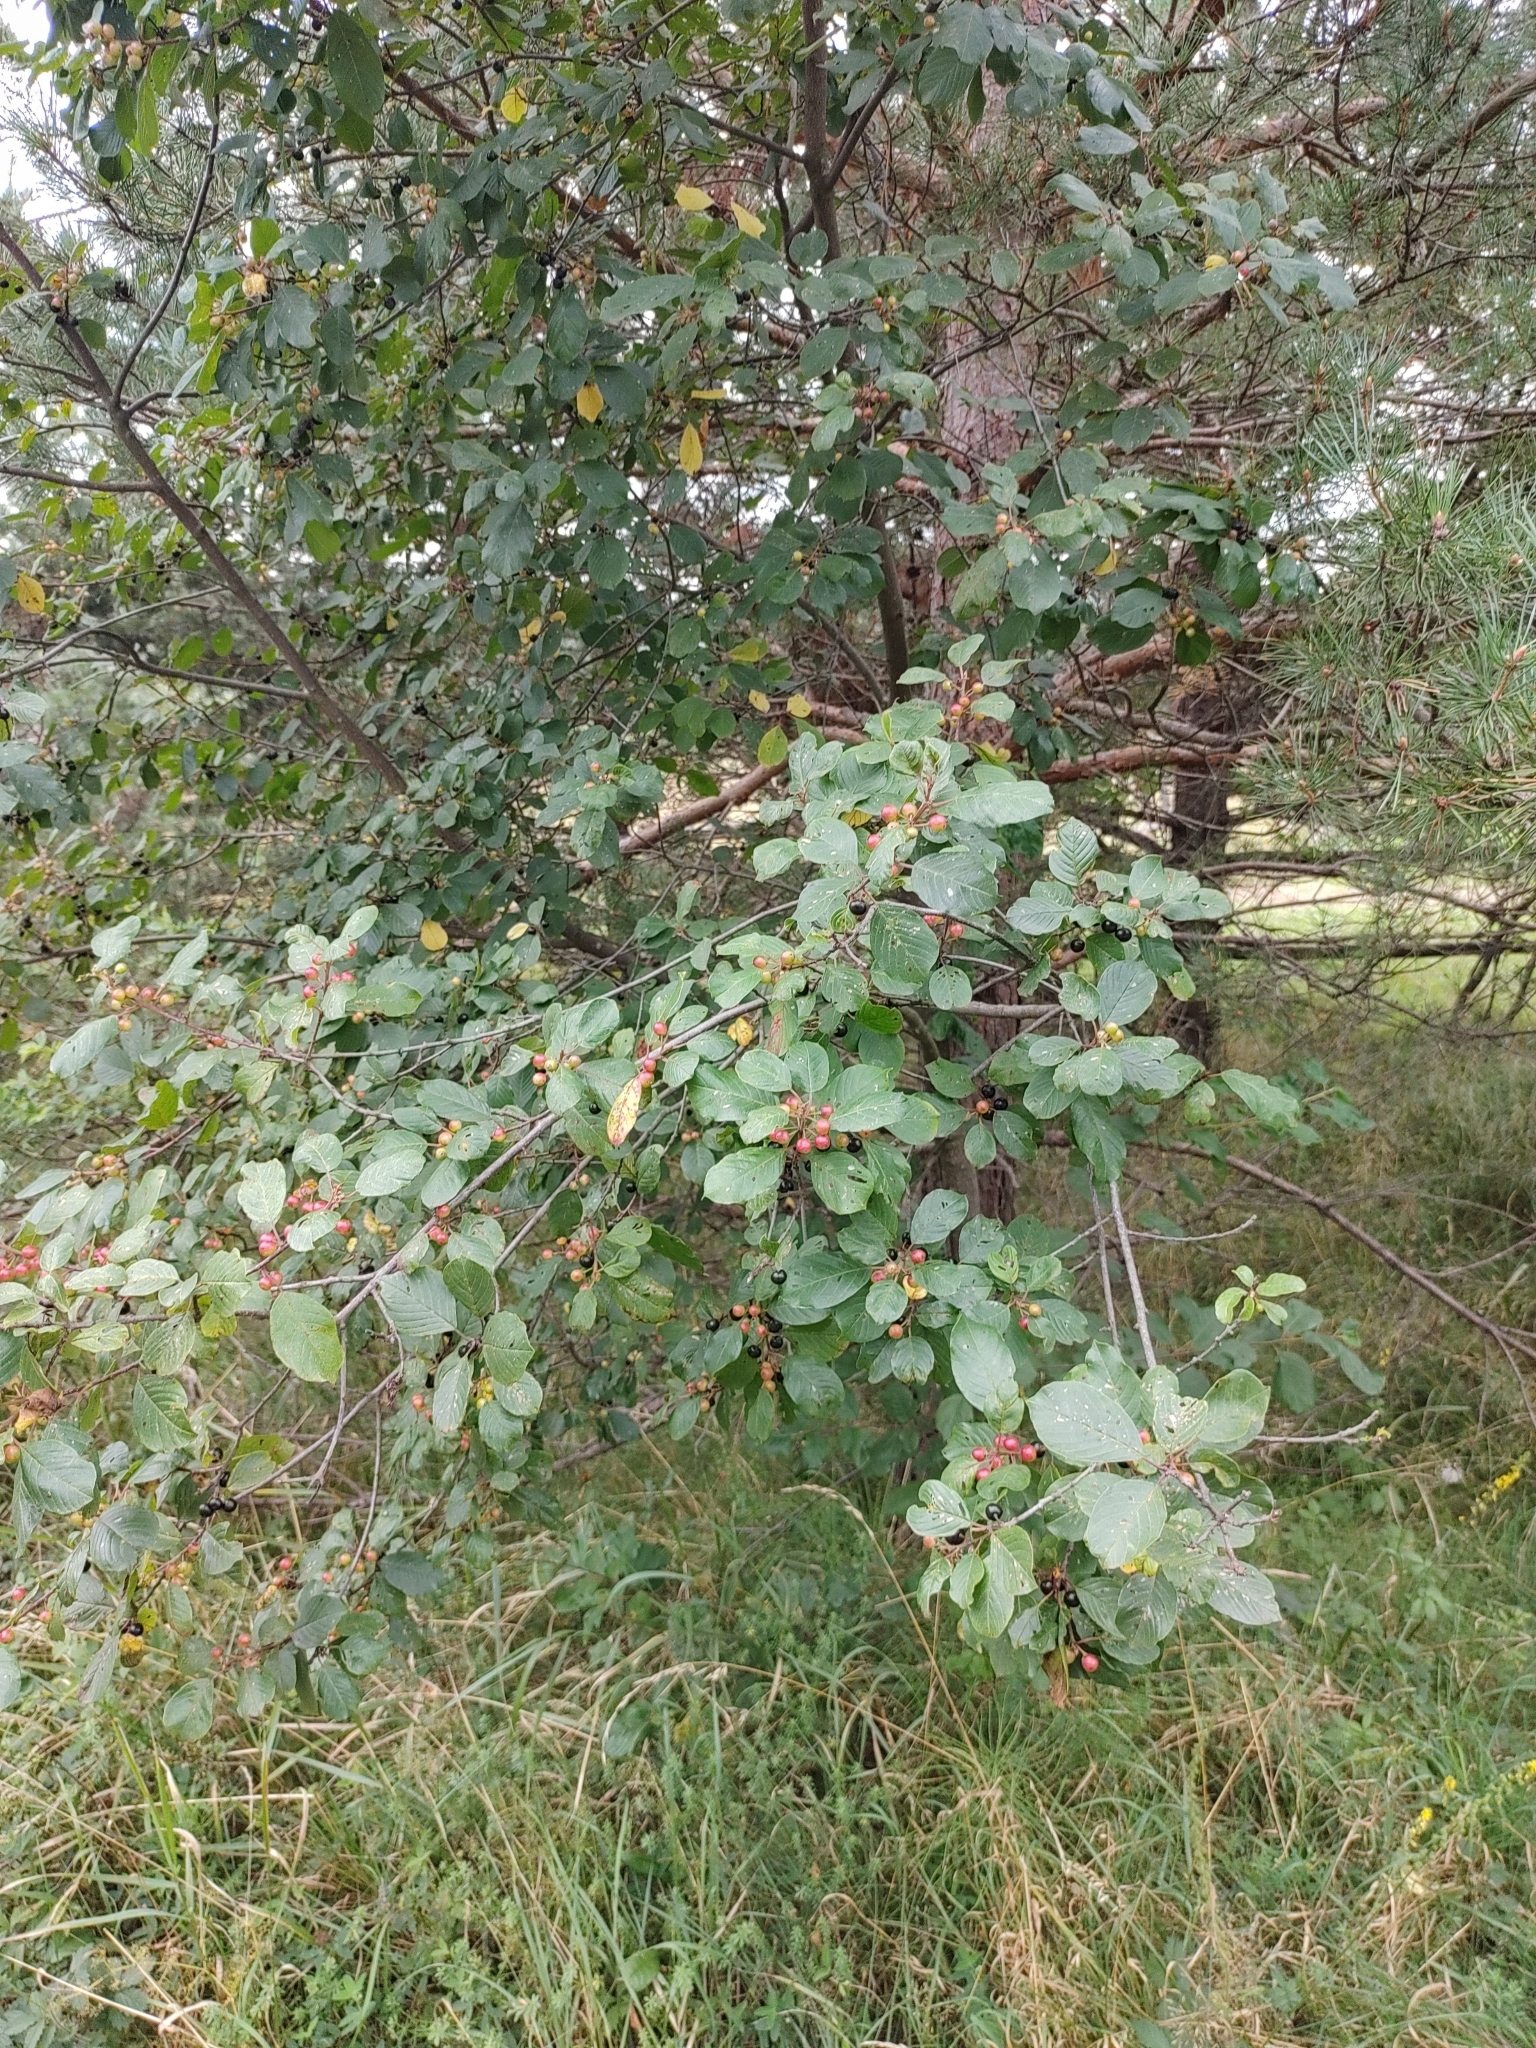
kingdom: Plantae
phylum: Tracheophyta
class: Magnoliopsida
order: Rosales
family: Rhamnaceae
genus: Frangula
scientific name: Frangula alnus
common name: Alder buckthorn
